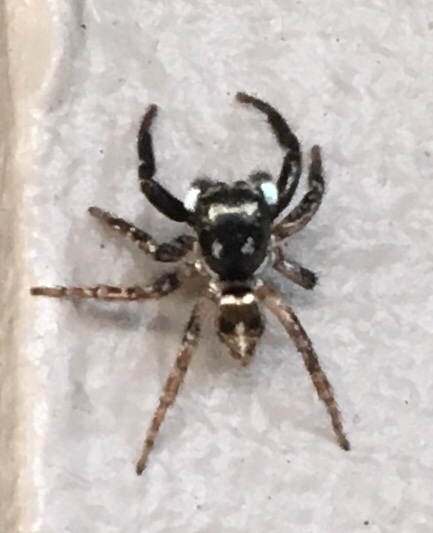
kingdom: Animalia
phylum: Arthropoda
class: Arachnida
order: Araneae
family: Salticidae
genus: Anasaitis
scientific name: Anasaitis canosa
